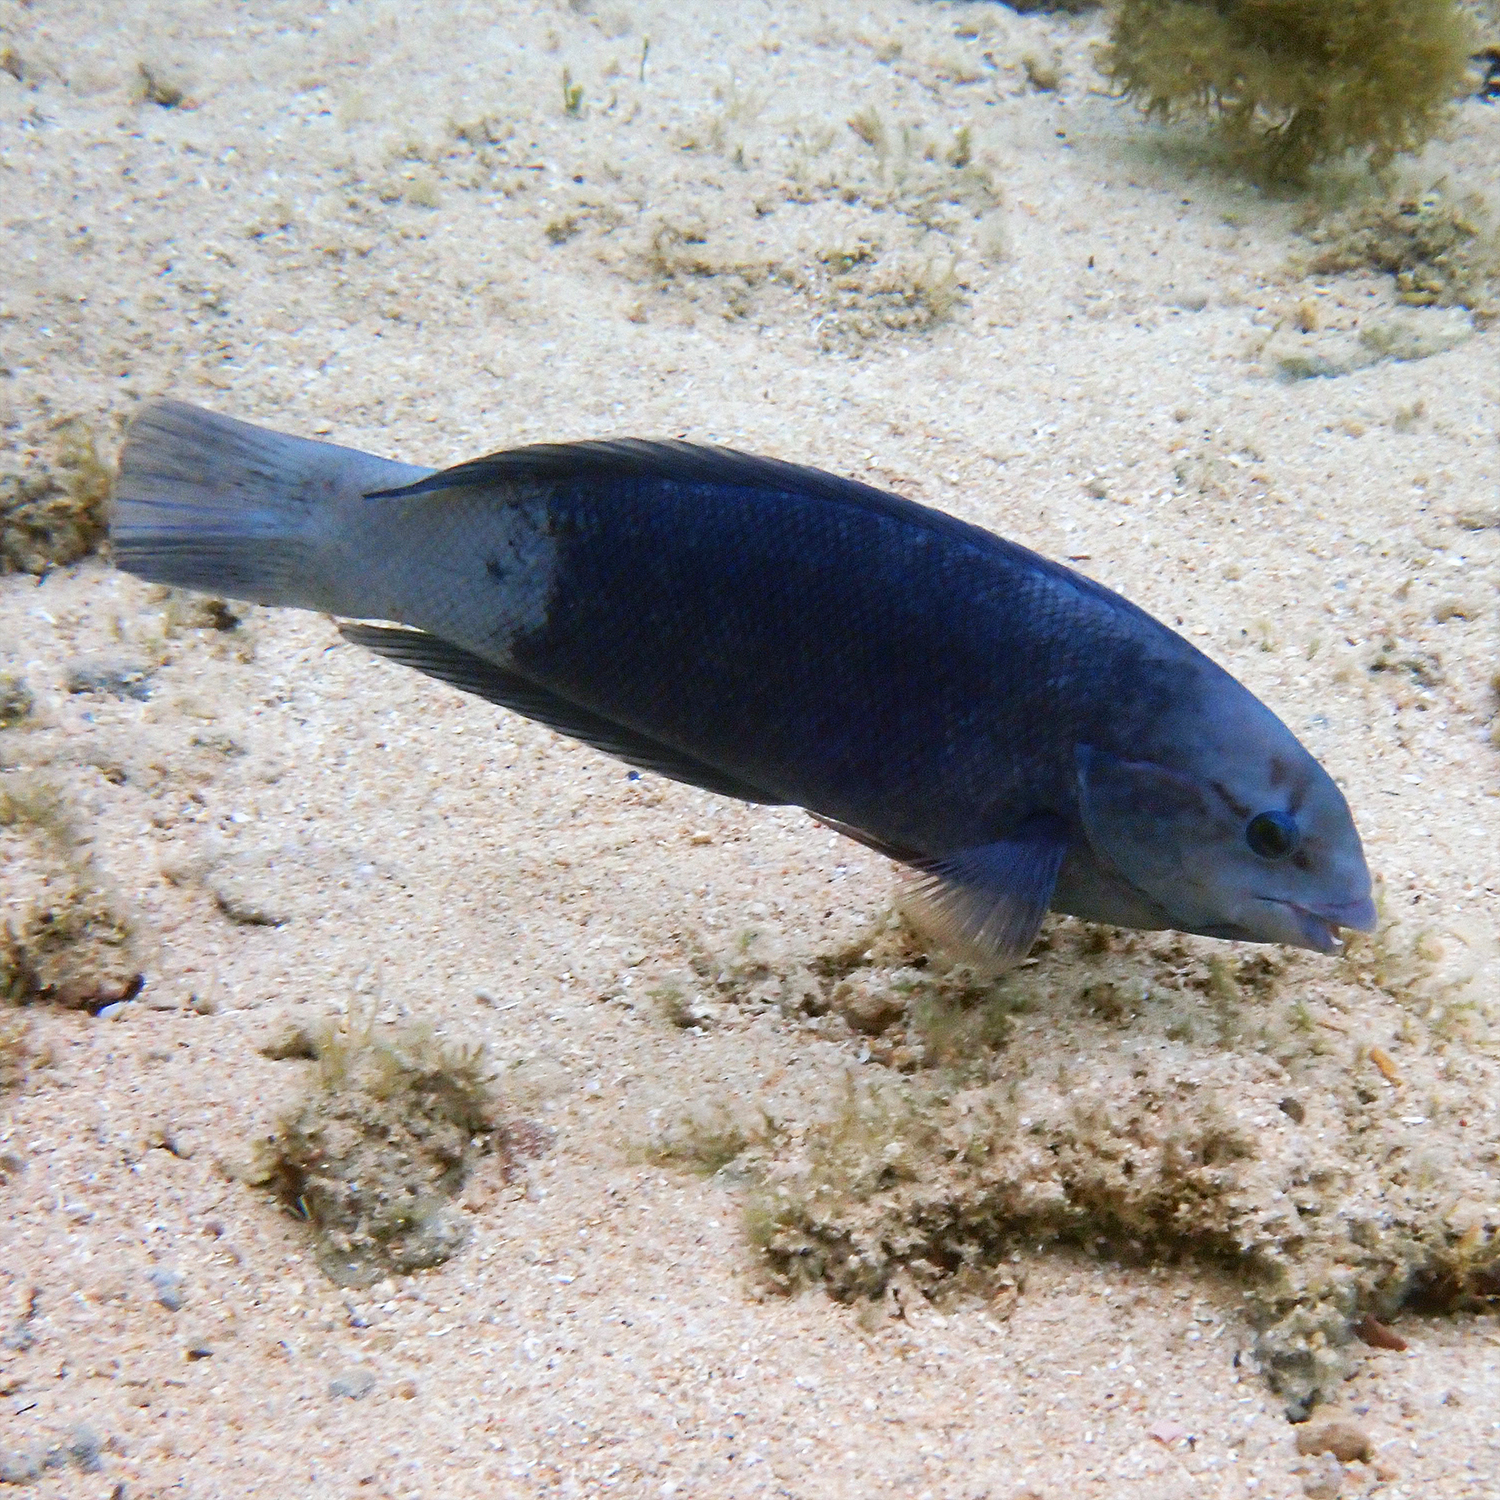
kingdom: Animalia
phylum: Chordata
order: Perciformes
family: Labridae
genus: Coris
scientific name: Coris bulbifrons
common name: Doubleheader
